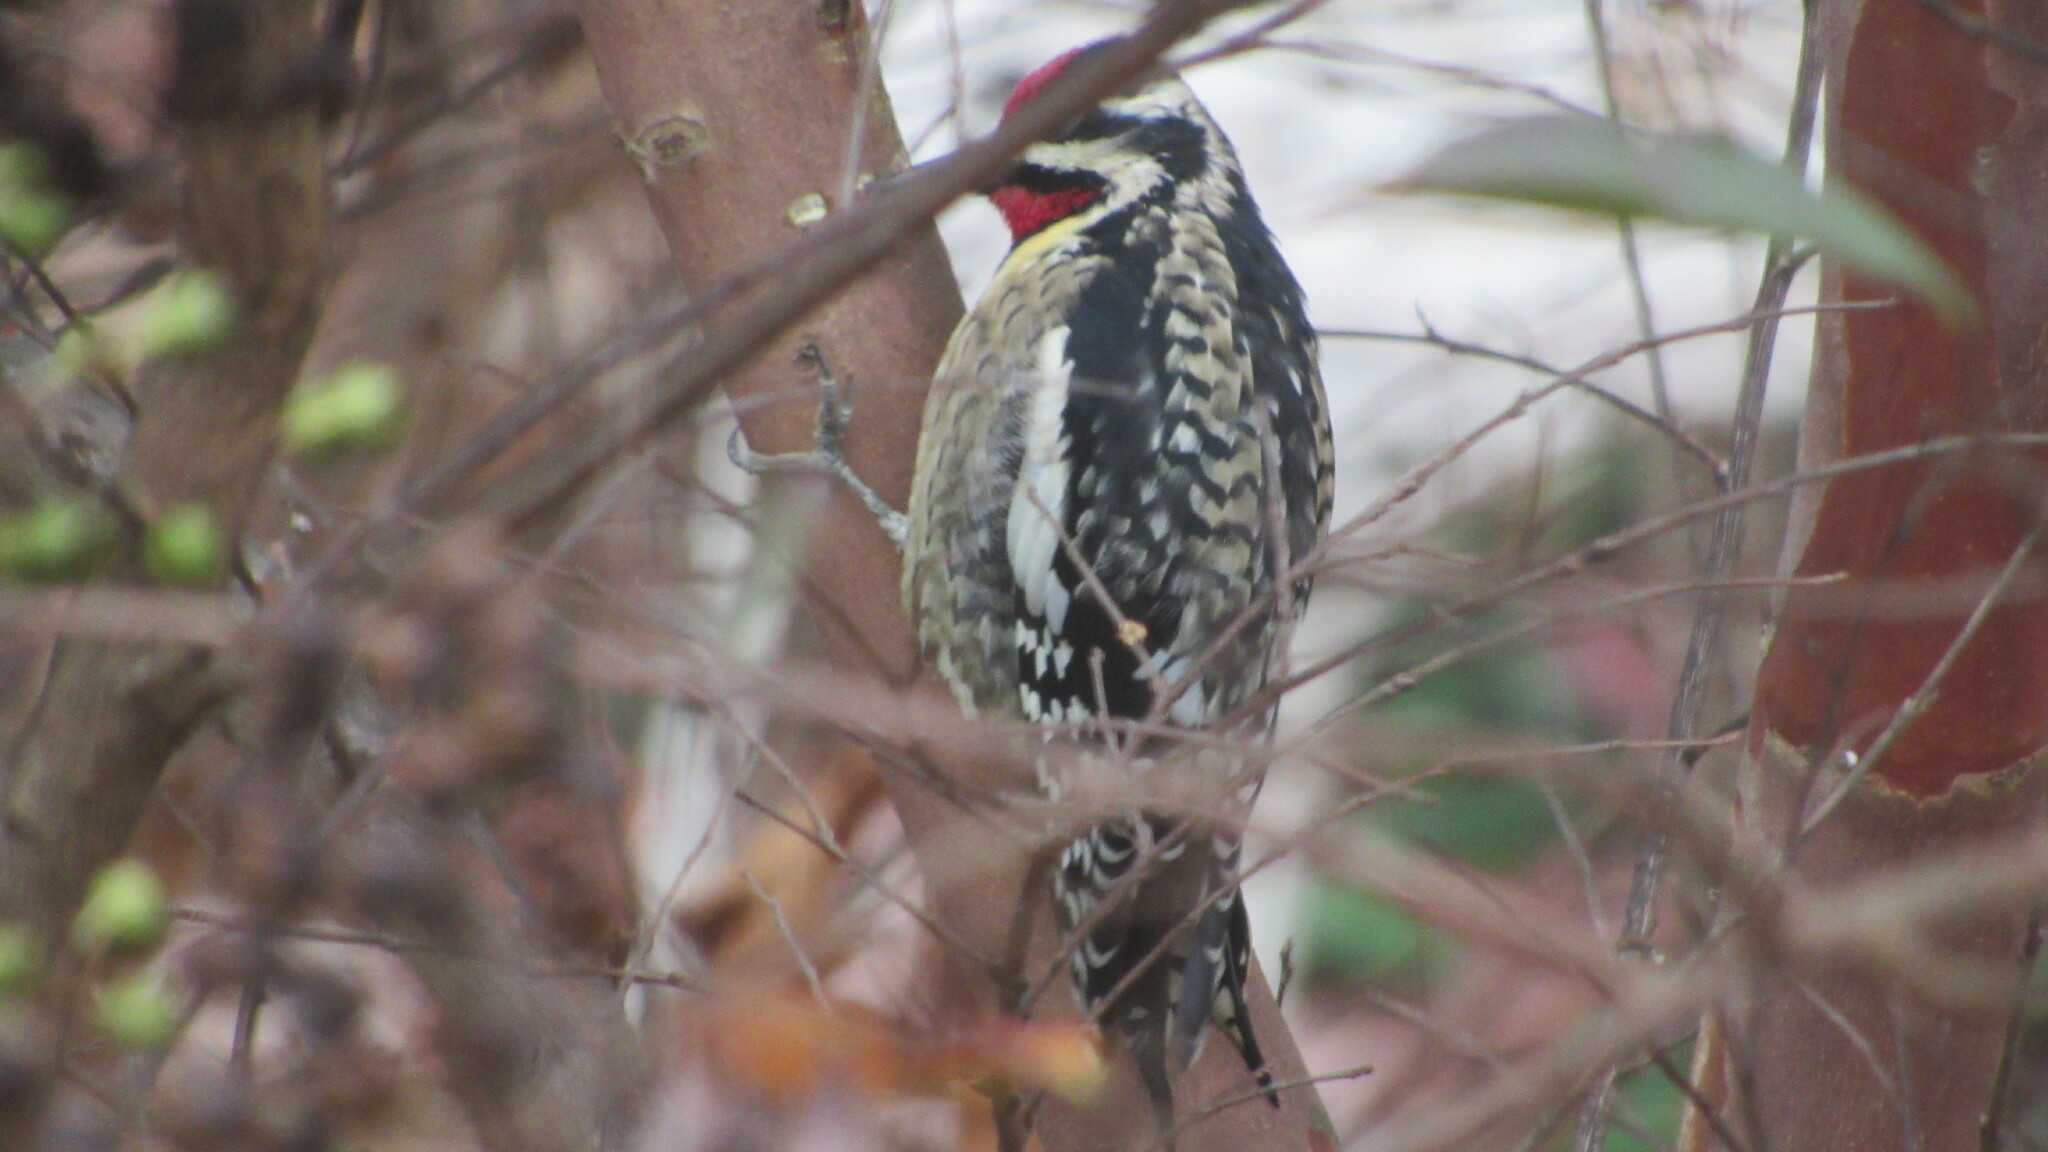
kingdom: Animalia
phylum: Chordata
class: Aves
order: Piciformes
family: Picidae
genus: Sphyrapicus
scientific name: Sphyrapicus varius
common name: Yellow-bellied sapsucker
